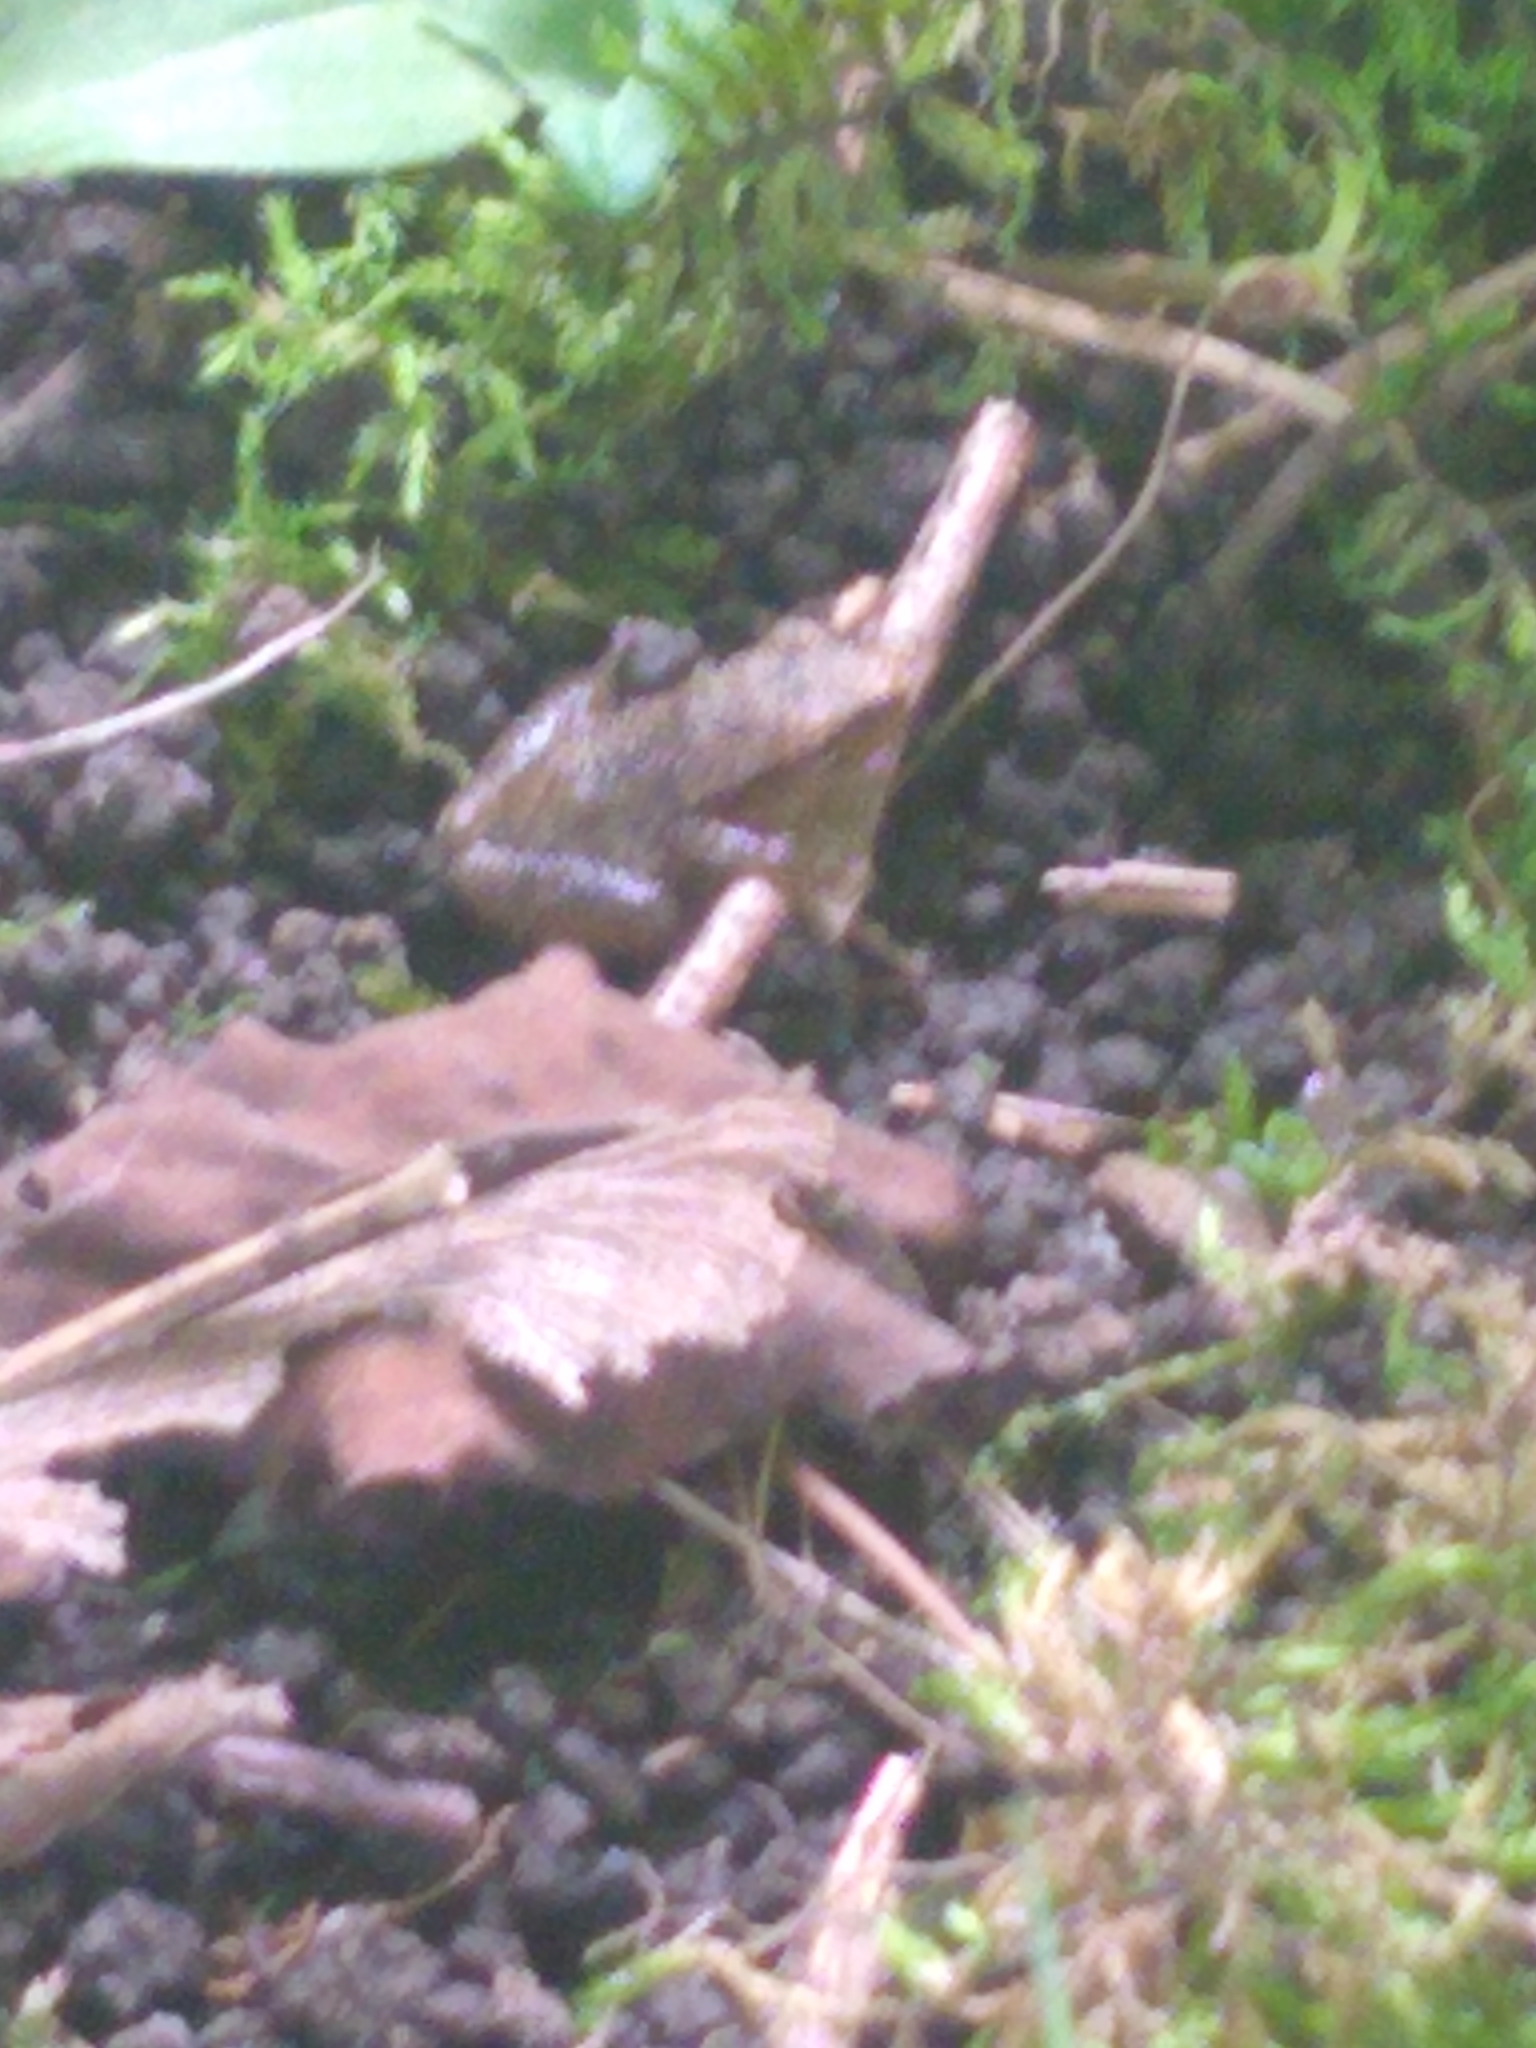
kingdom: Animalia
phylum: Chordata
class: Amphibia
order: Anura
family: Hylidae
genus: Pseudacris
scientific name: Pseudacris crucifer
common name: Spring peeper
